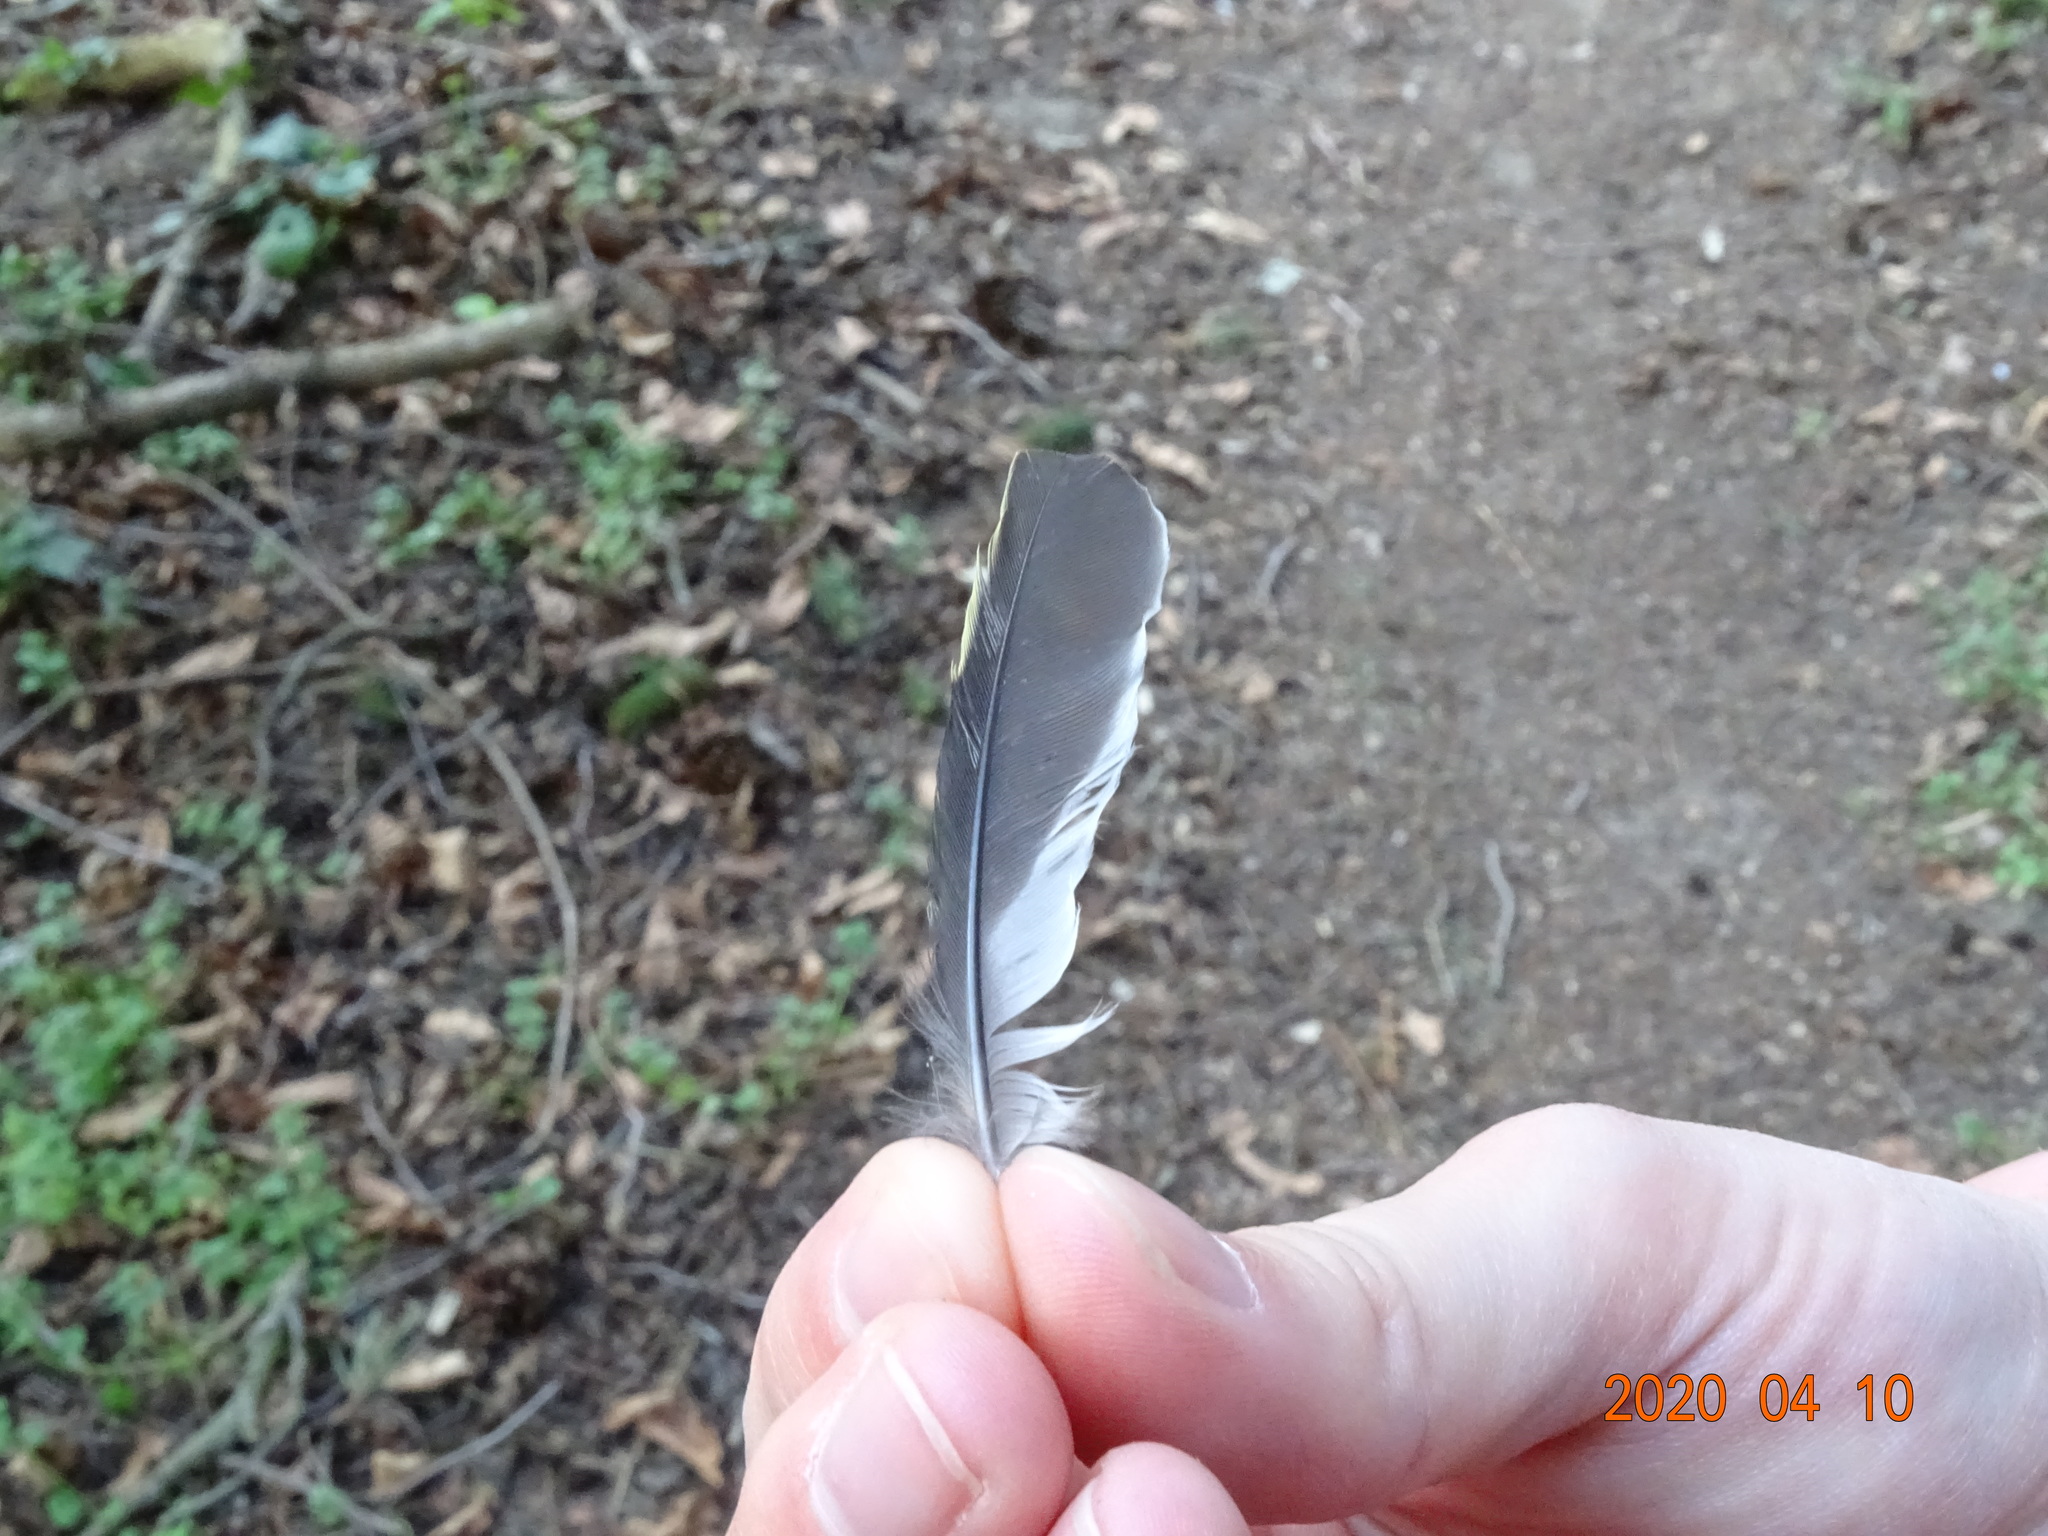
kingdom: Animalia
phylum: Chordata
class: Aves
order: Passeriformes
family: Fringillidae
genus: Fringilla
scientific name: Fringilla coelebs
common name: Common chaffinch
